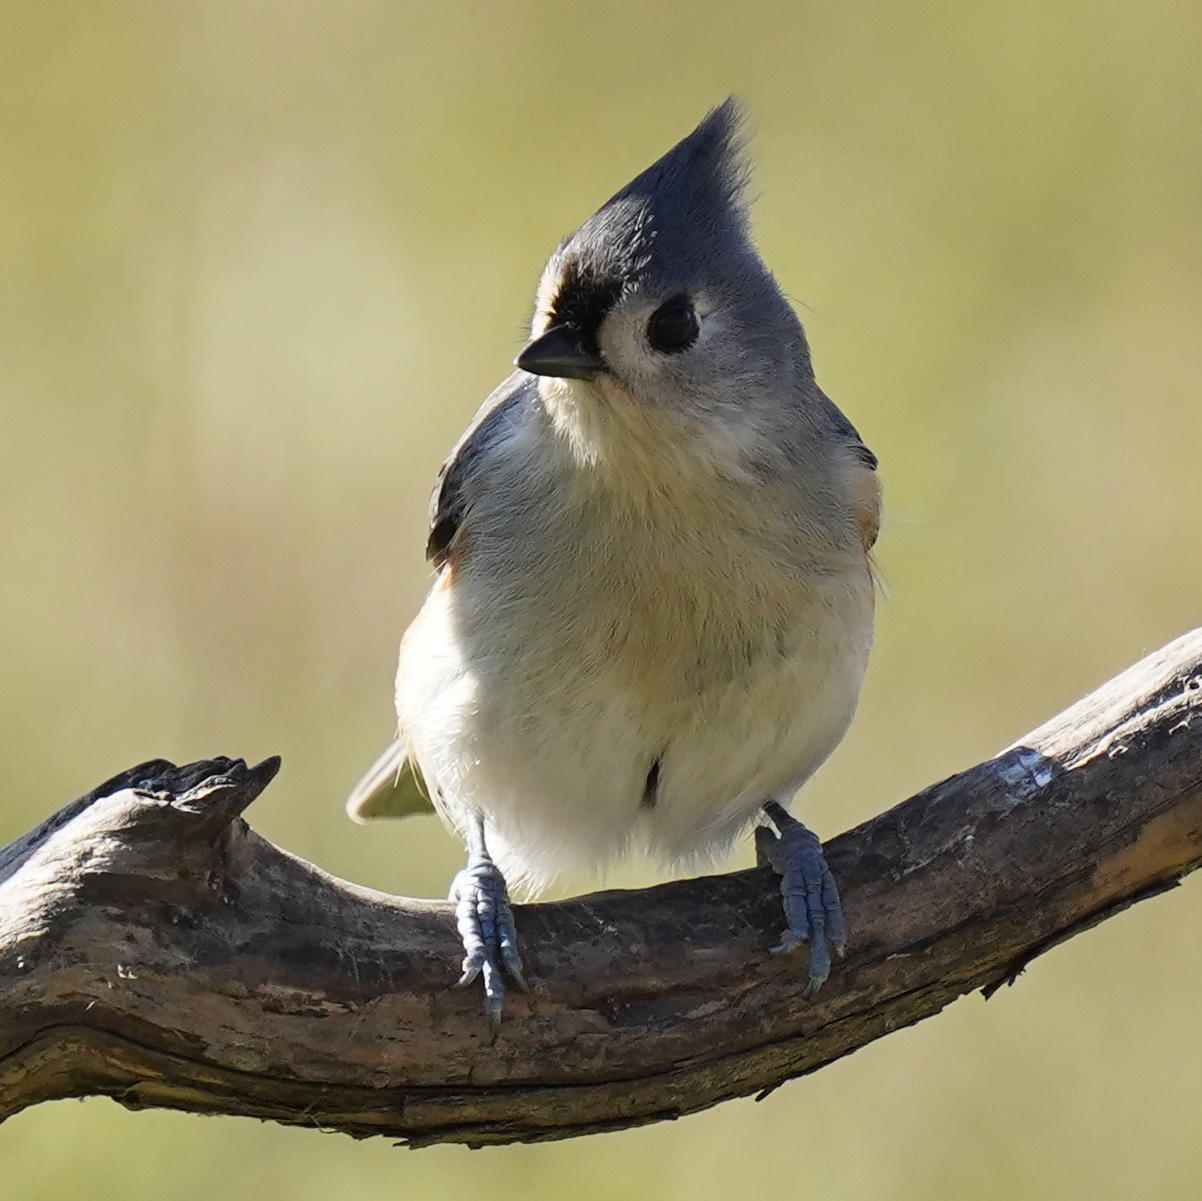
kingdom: Animalia
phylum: Chordata
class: Aves
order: Passeriformes
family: Paridae
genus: Baeolophus
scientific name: Baeolophus bicolor
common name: Tufted titmouse
